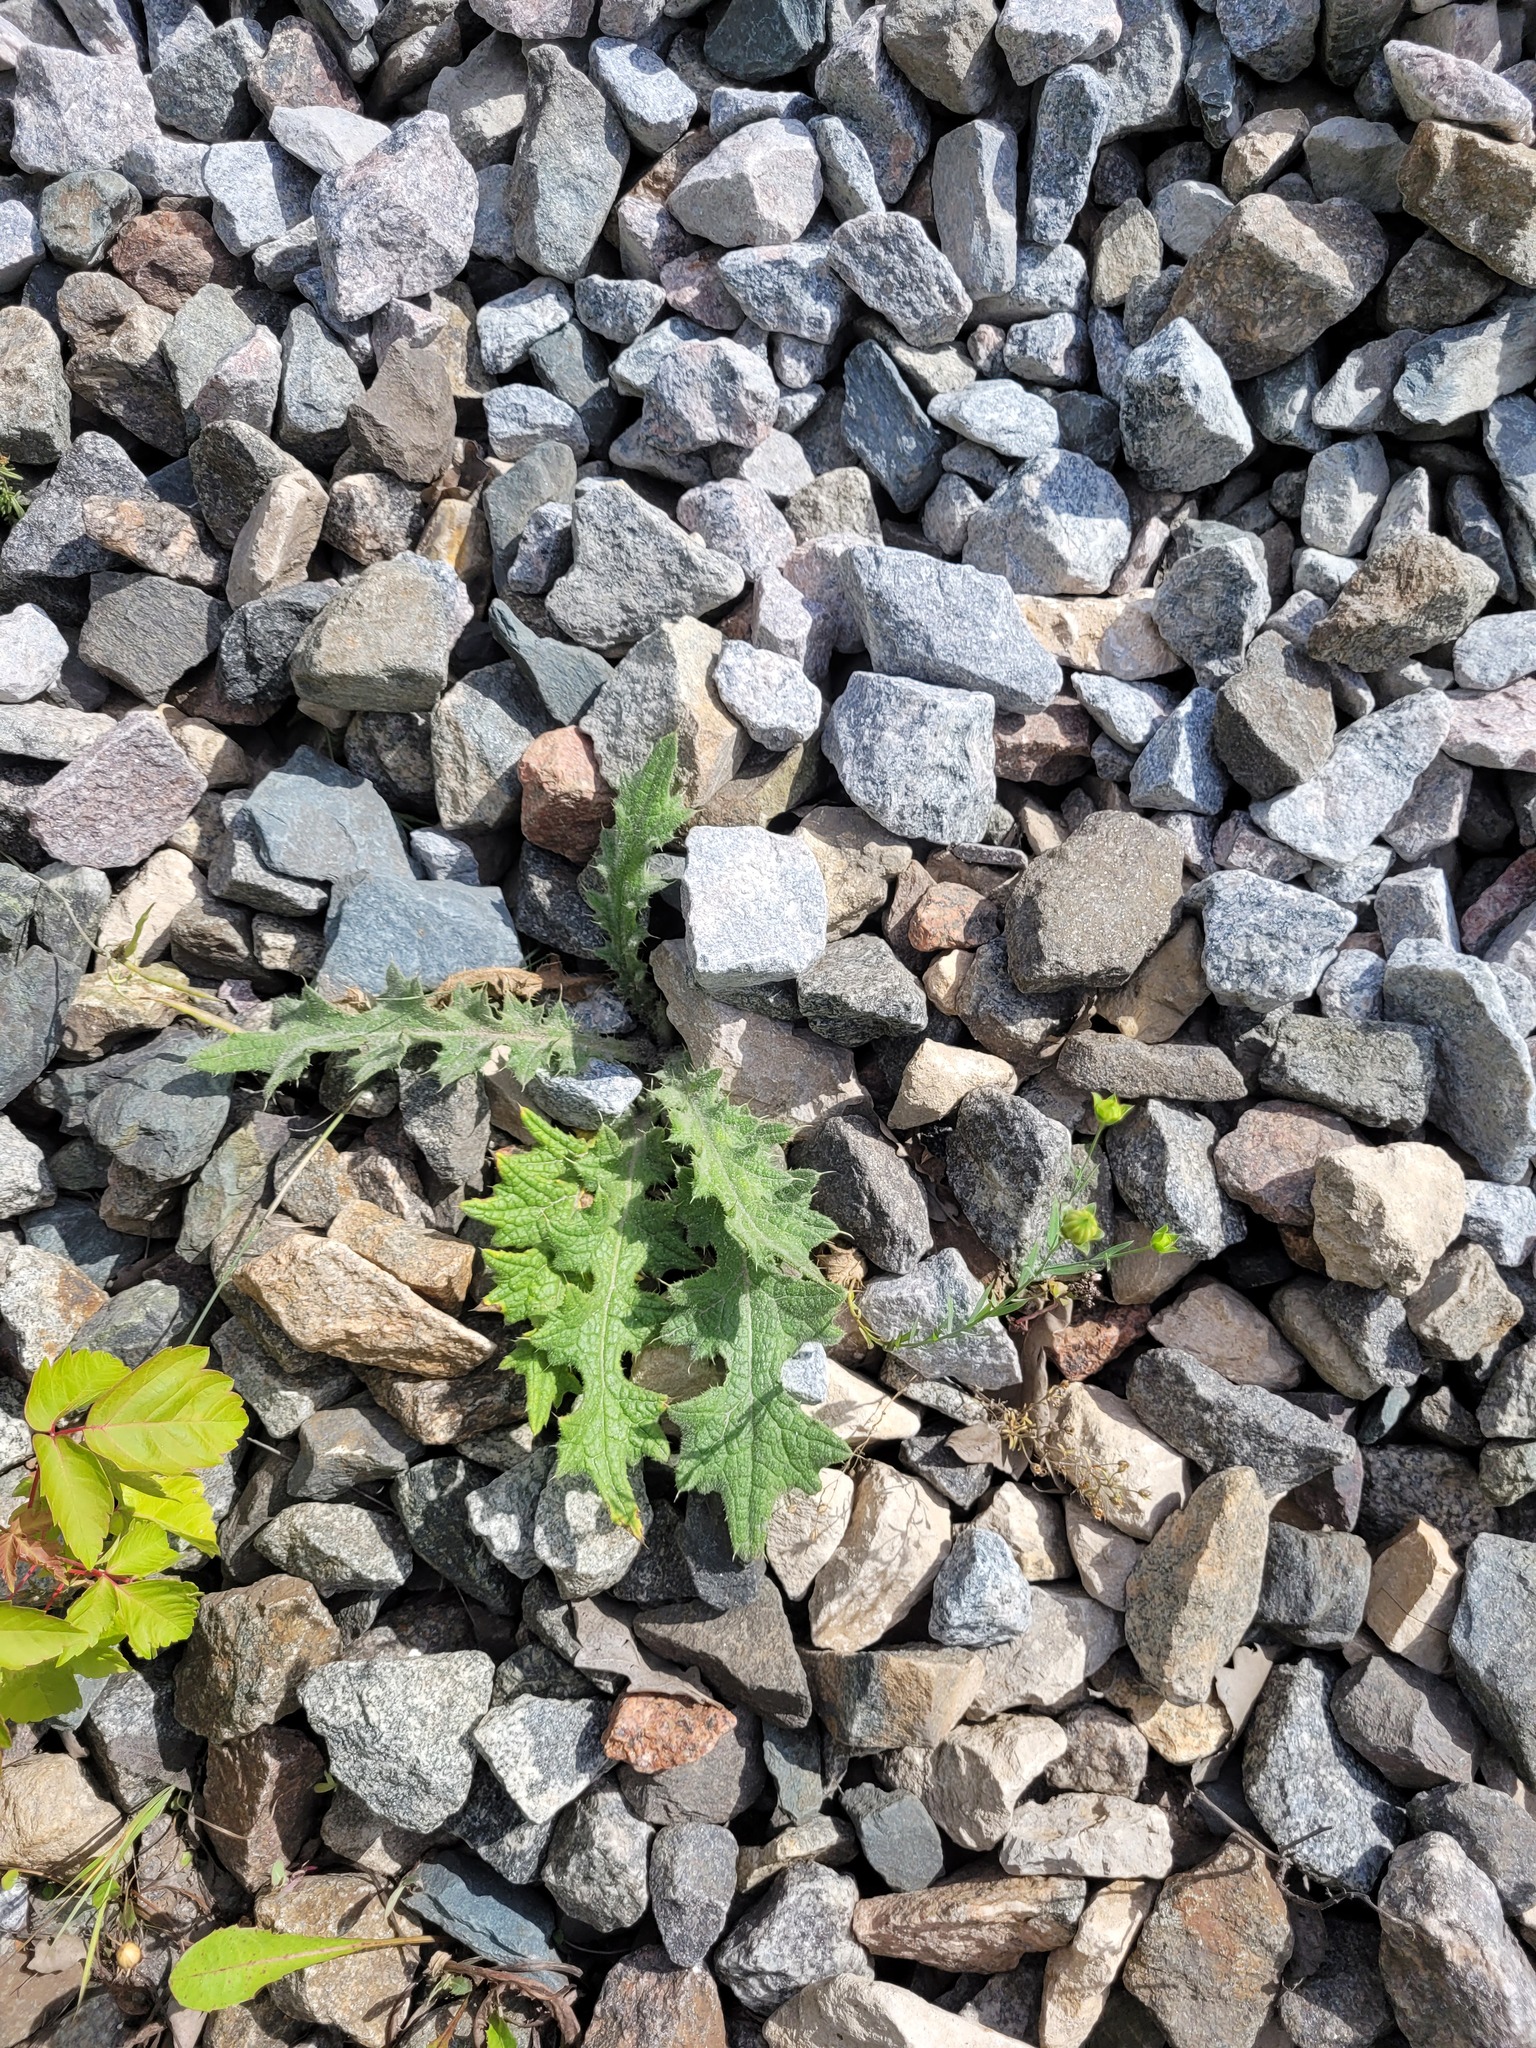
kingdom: Plantae
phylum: Tracheophyta
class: Magnoliopsida
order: Asterales
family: Asteraceae
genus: Cirsium
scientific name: Cirsium vulgare
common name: Bull thistle
